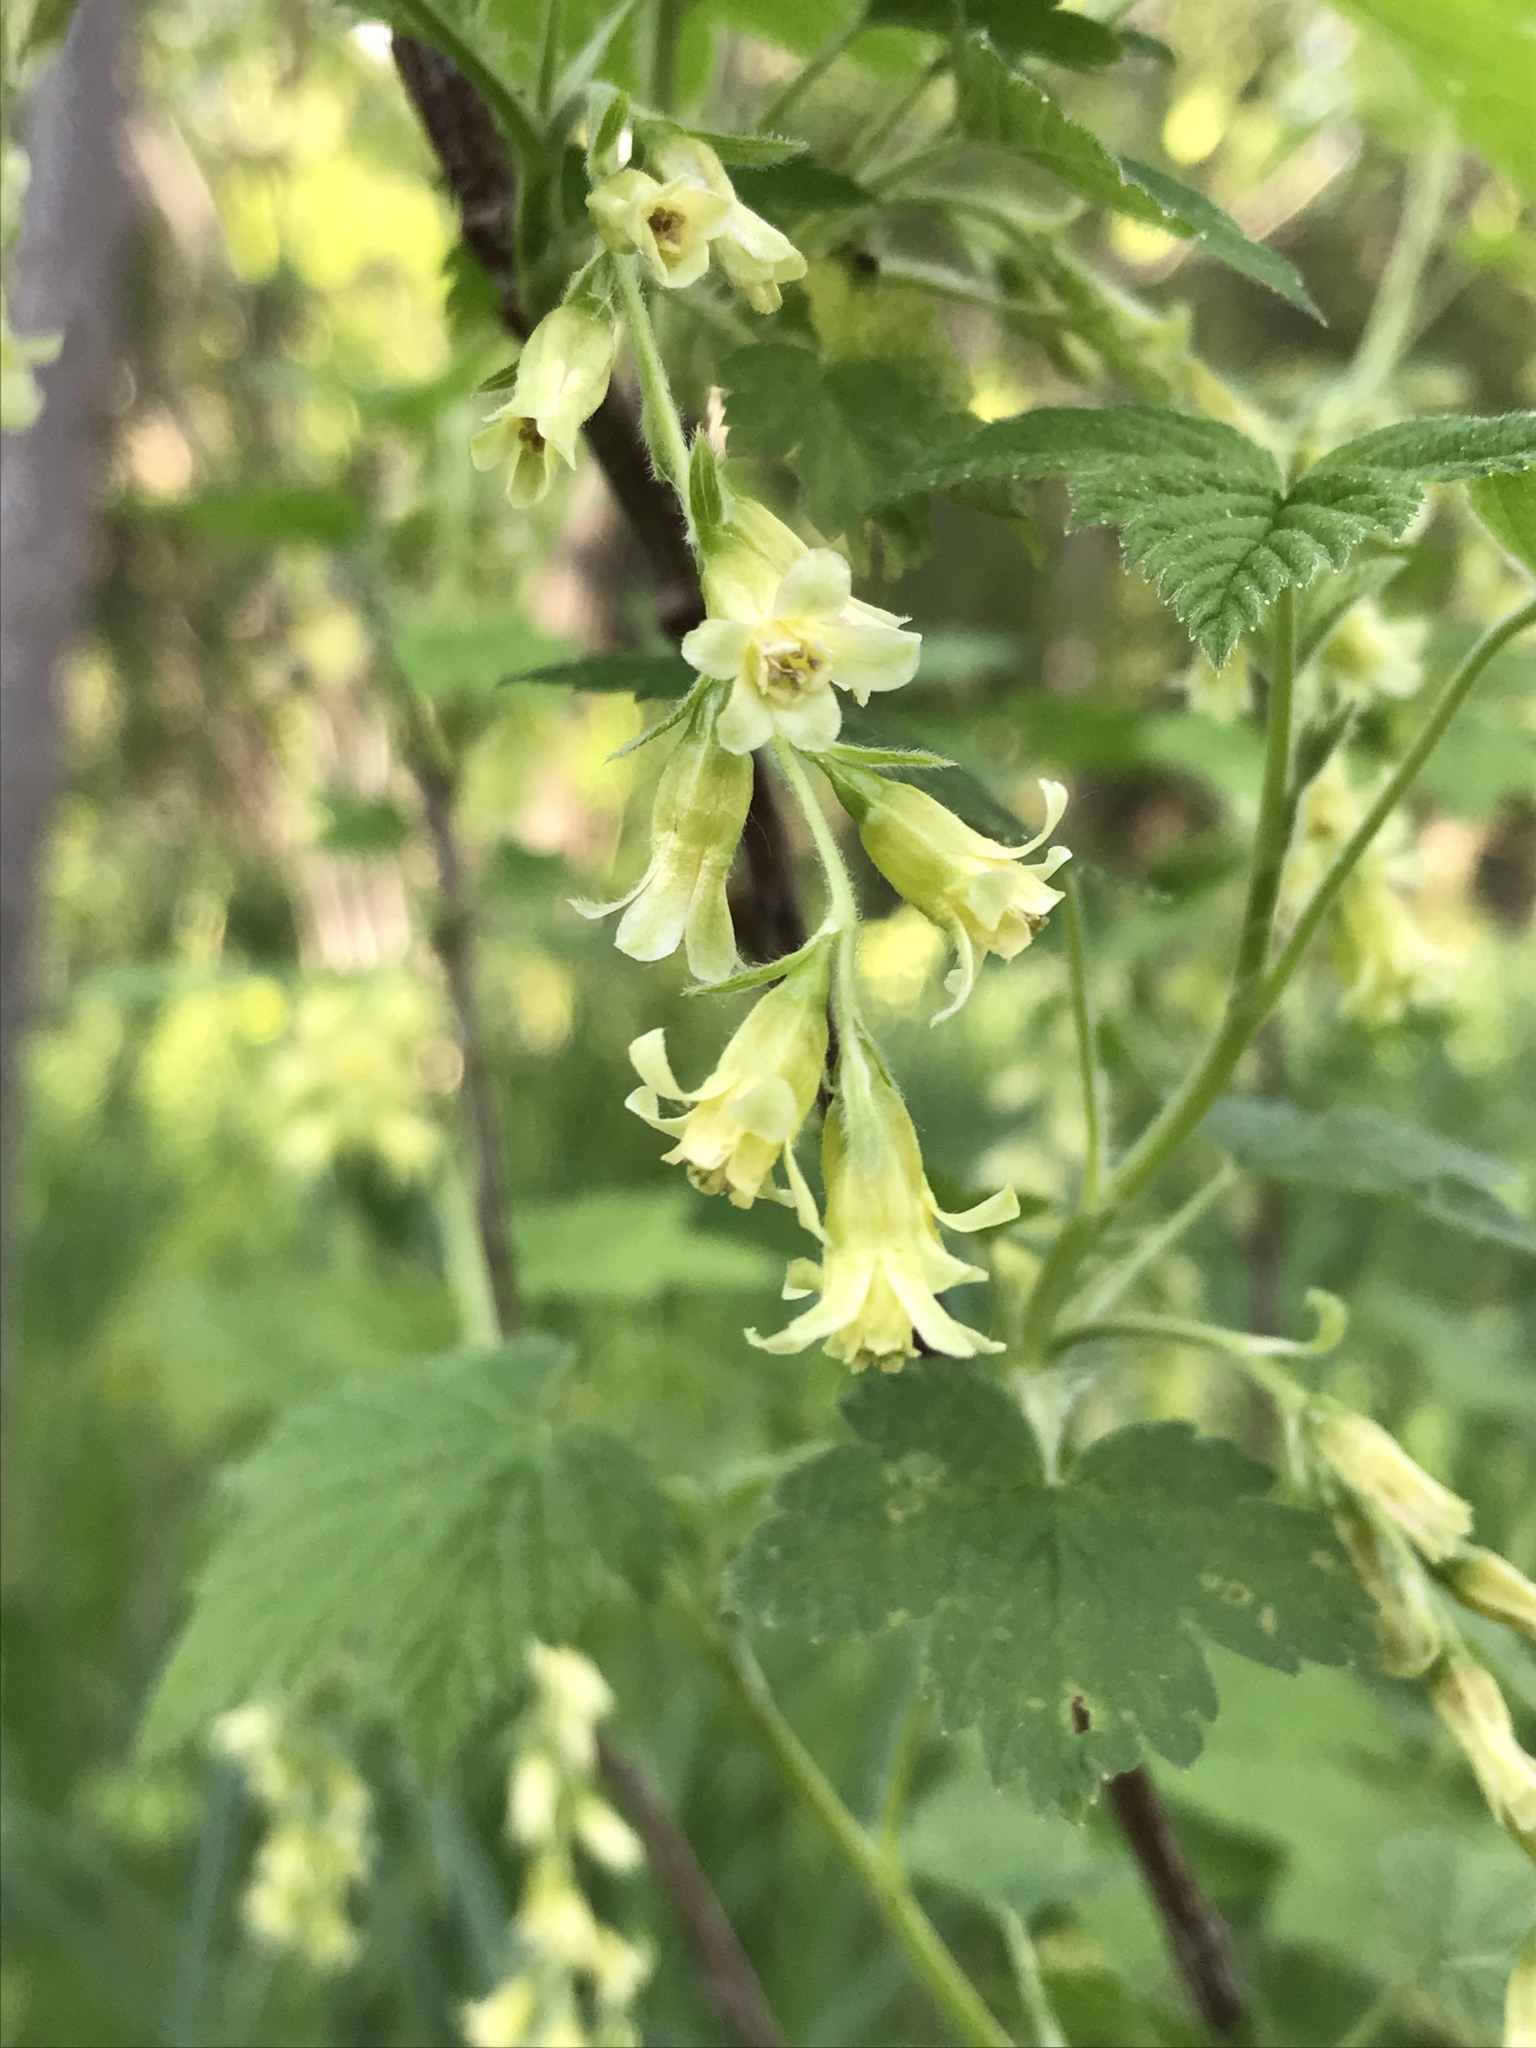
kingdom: Plantae
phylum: Tracheophyta
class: Magnoliopsida
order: Saxifragales
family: Grossulariaceae
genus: Ribes
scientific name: Ribes americanum
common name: American black currant
